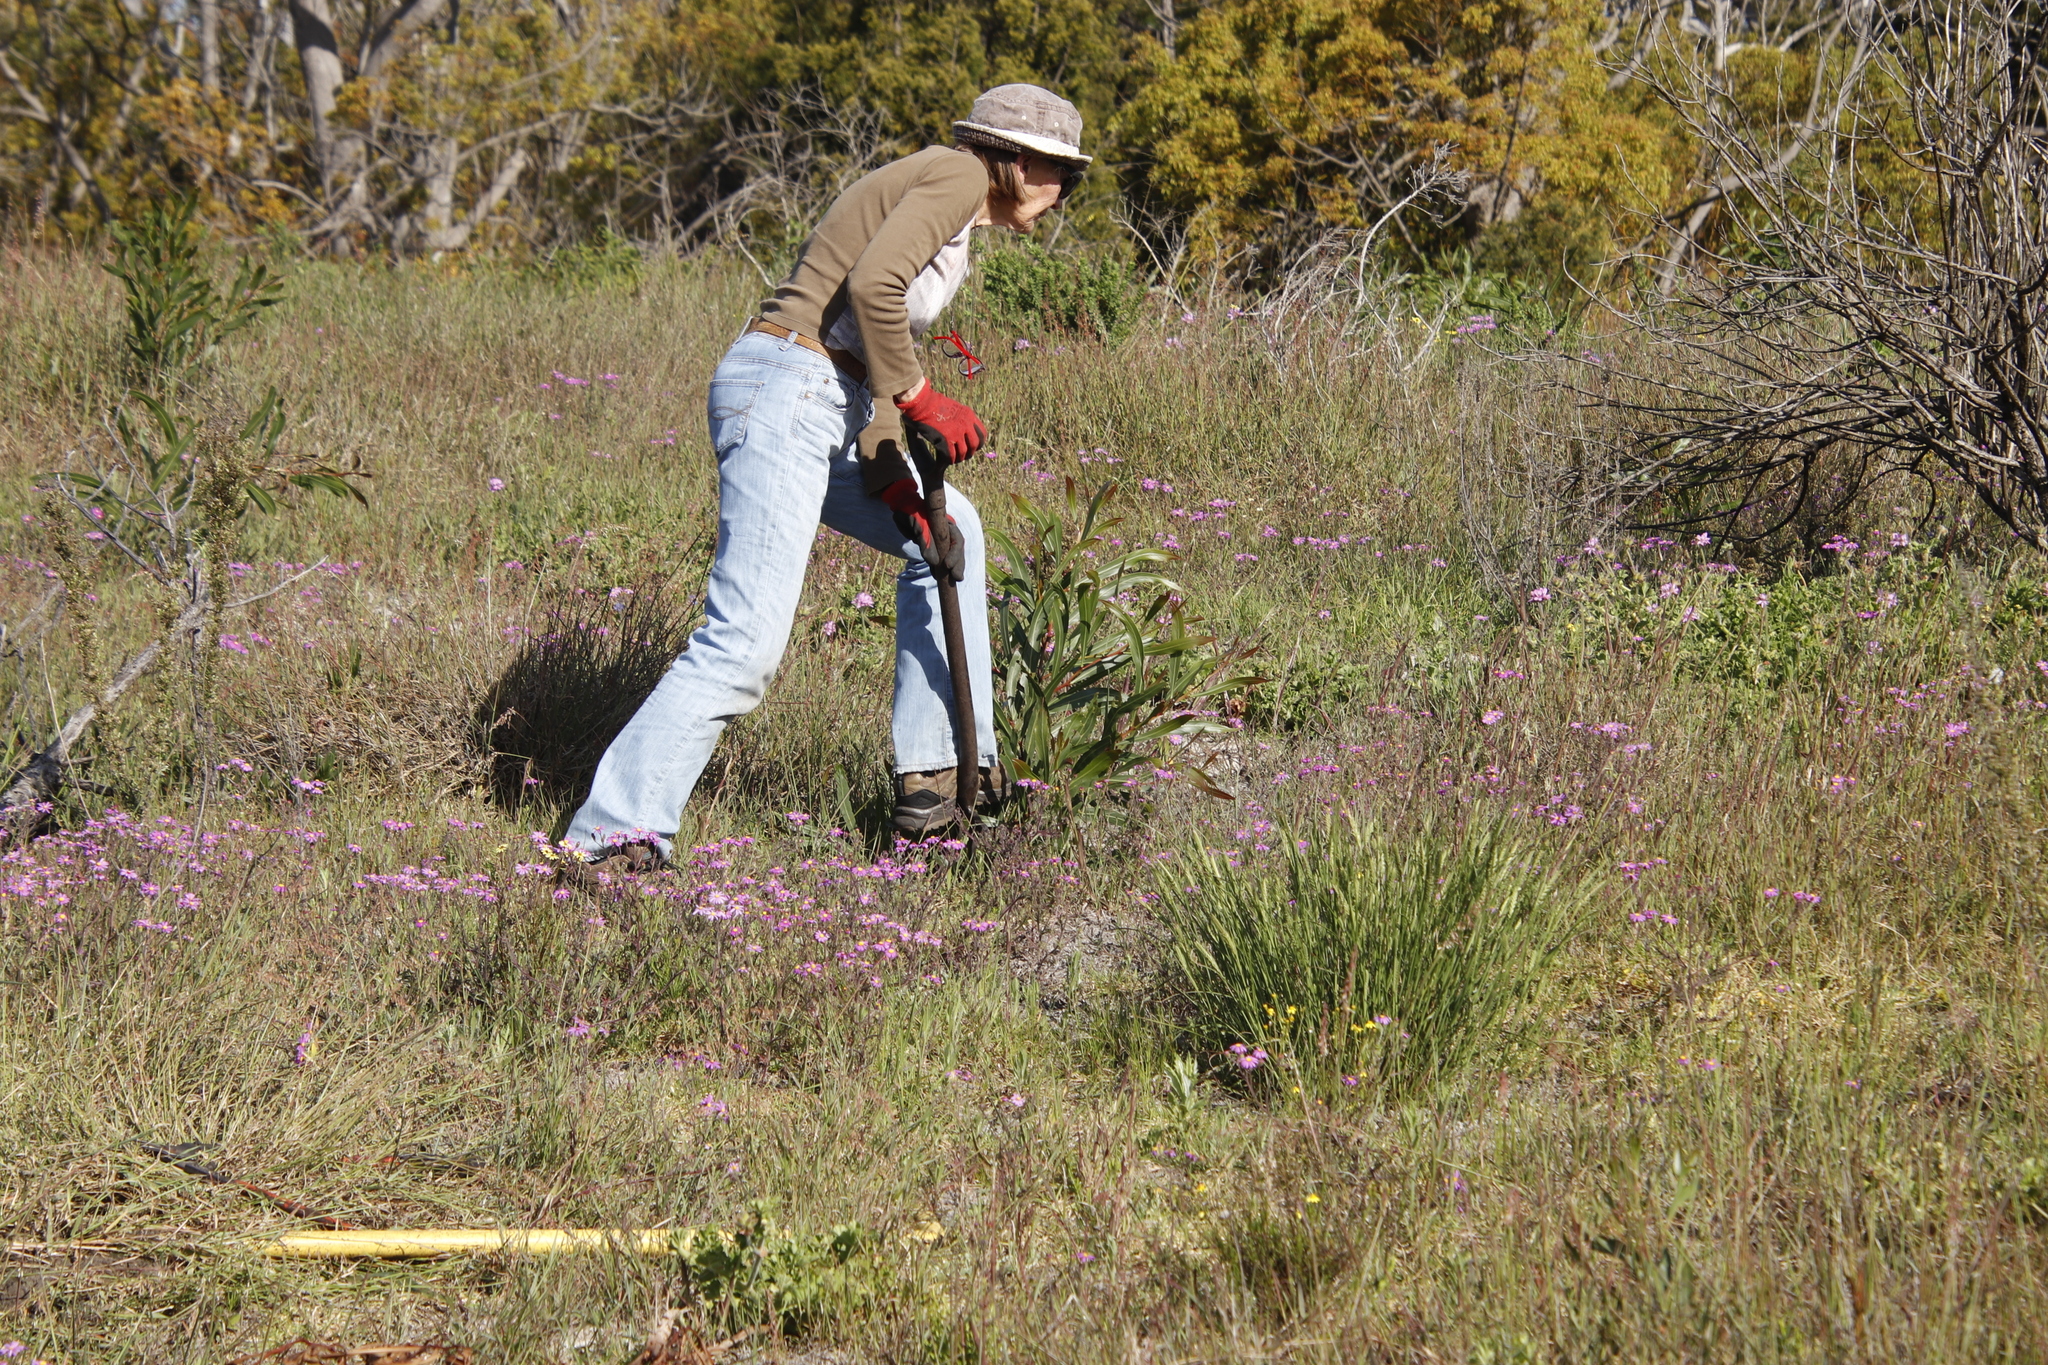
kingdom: Plantae
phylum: Tracheophyta
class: Magnoliopsida
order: Fabales
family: Fabaceae
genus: Acacia
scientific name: Acacia saligna
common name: Orange wattle
